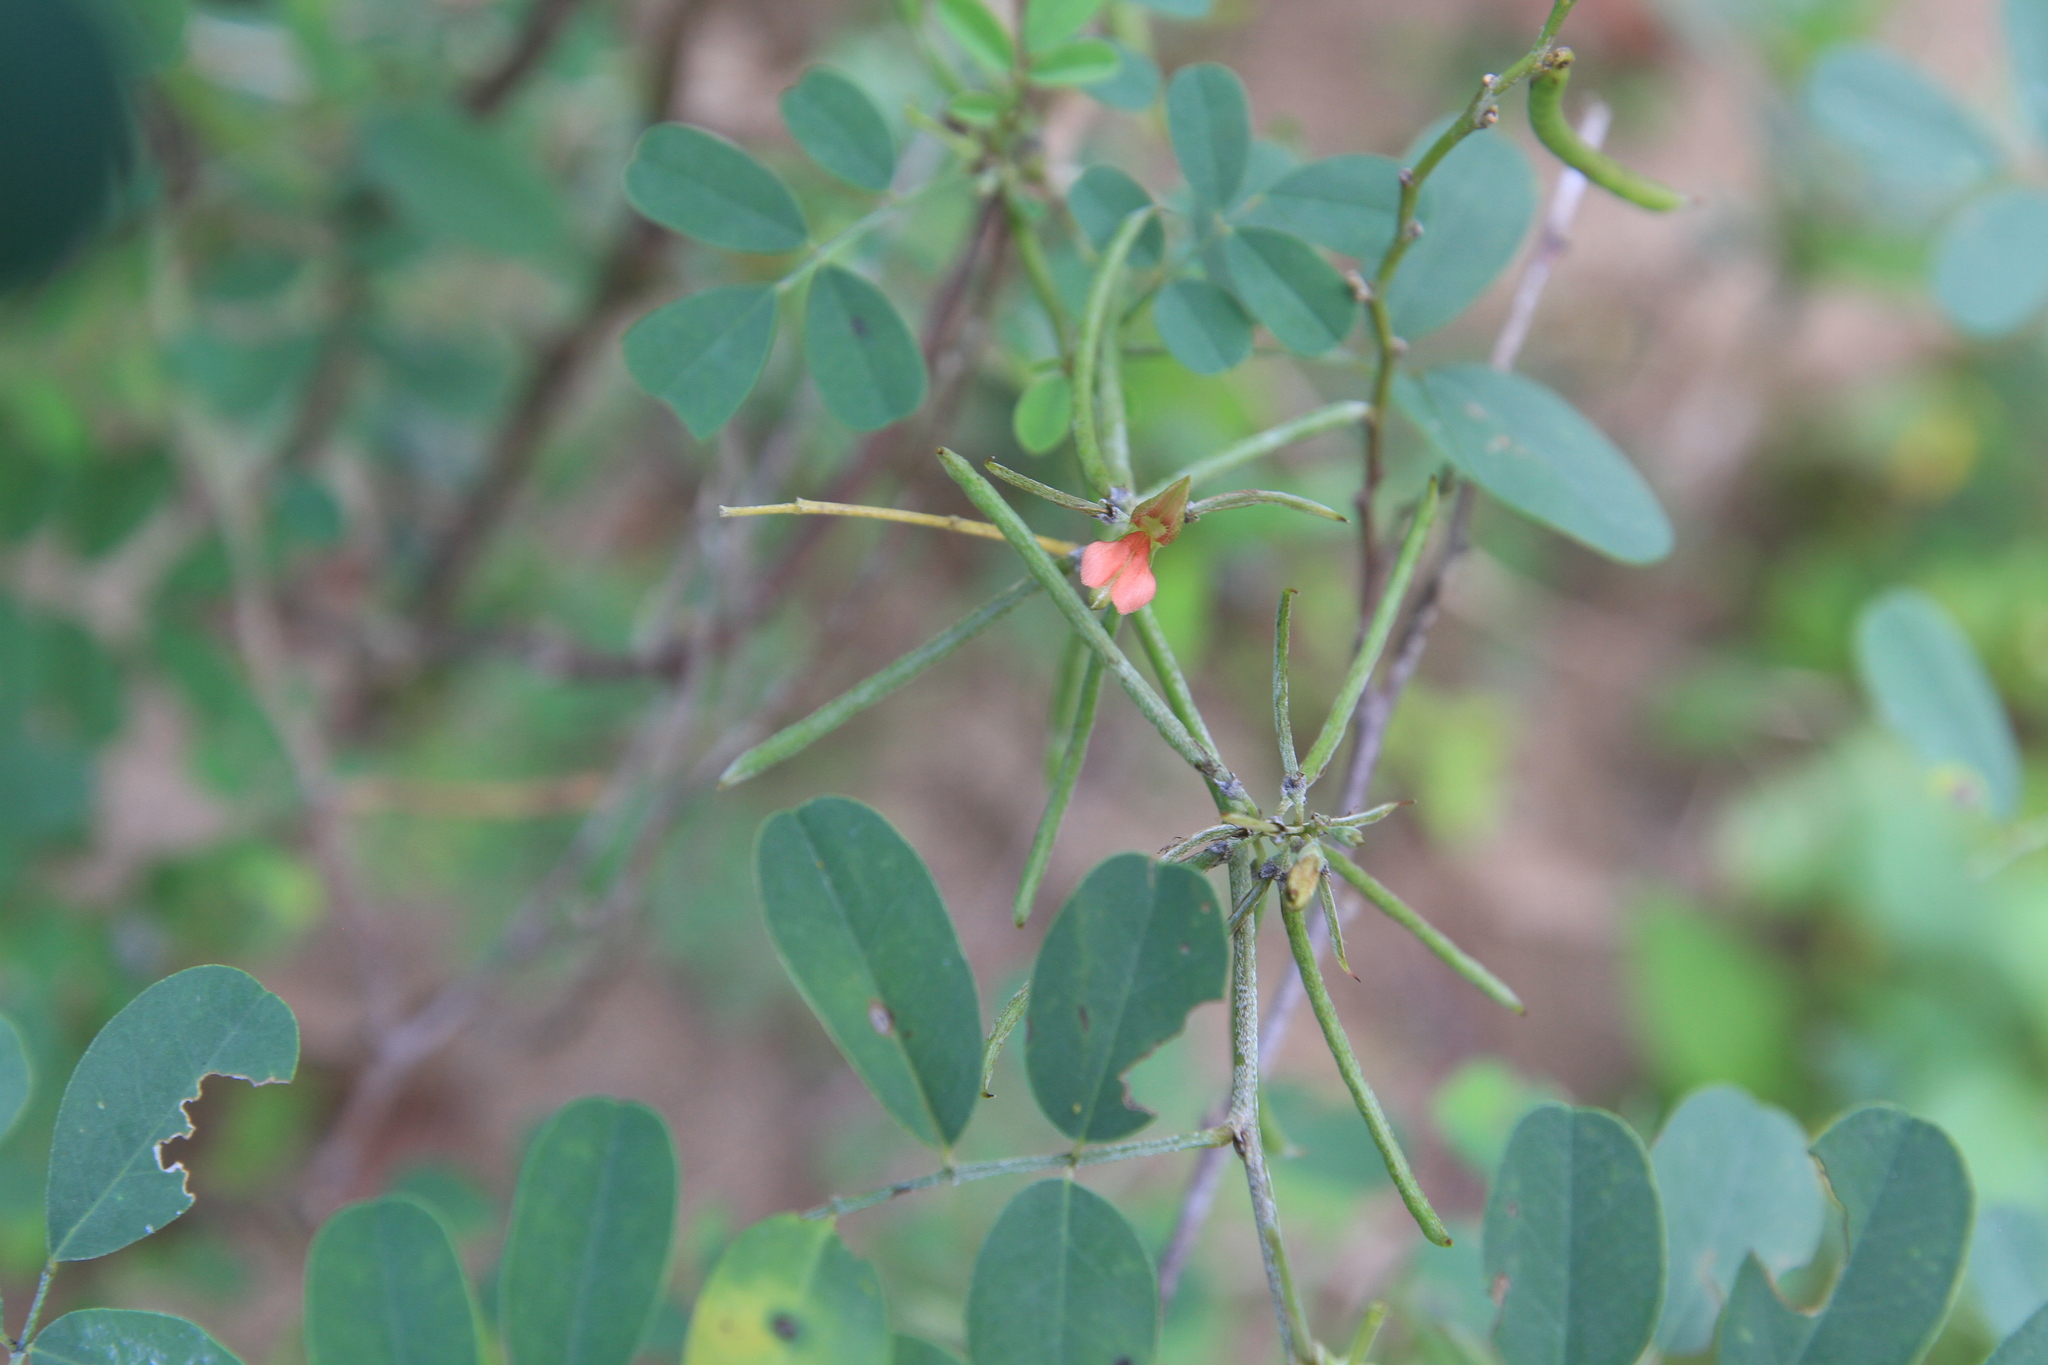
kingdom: Plantae
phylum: Tracheophyta
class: Magnoliopsida
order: Fabales
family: Fabaceae
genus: Indigofera
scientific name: Indigofera tinctoria
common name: True indigo
